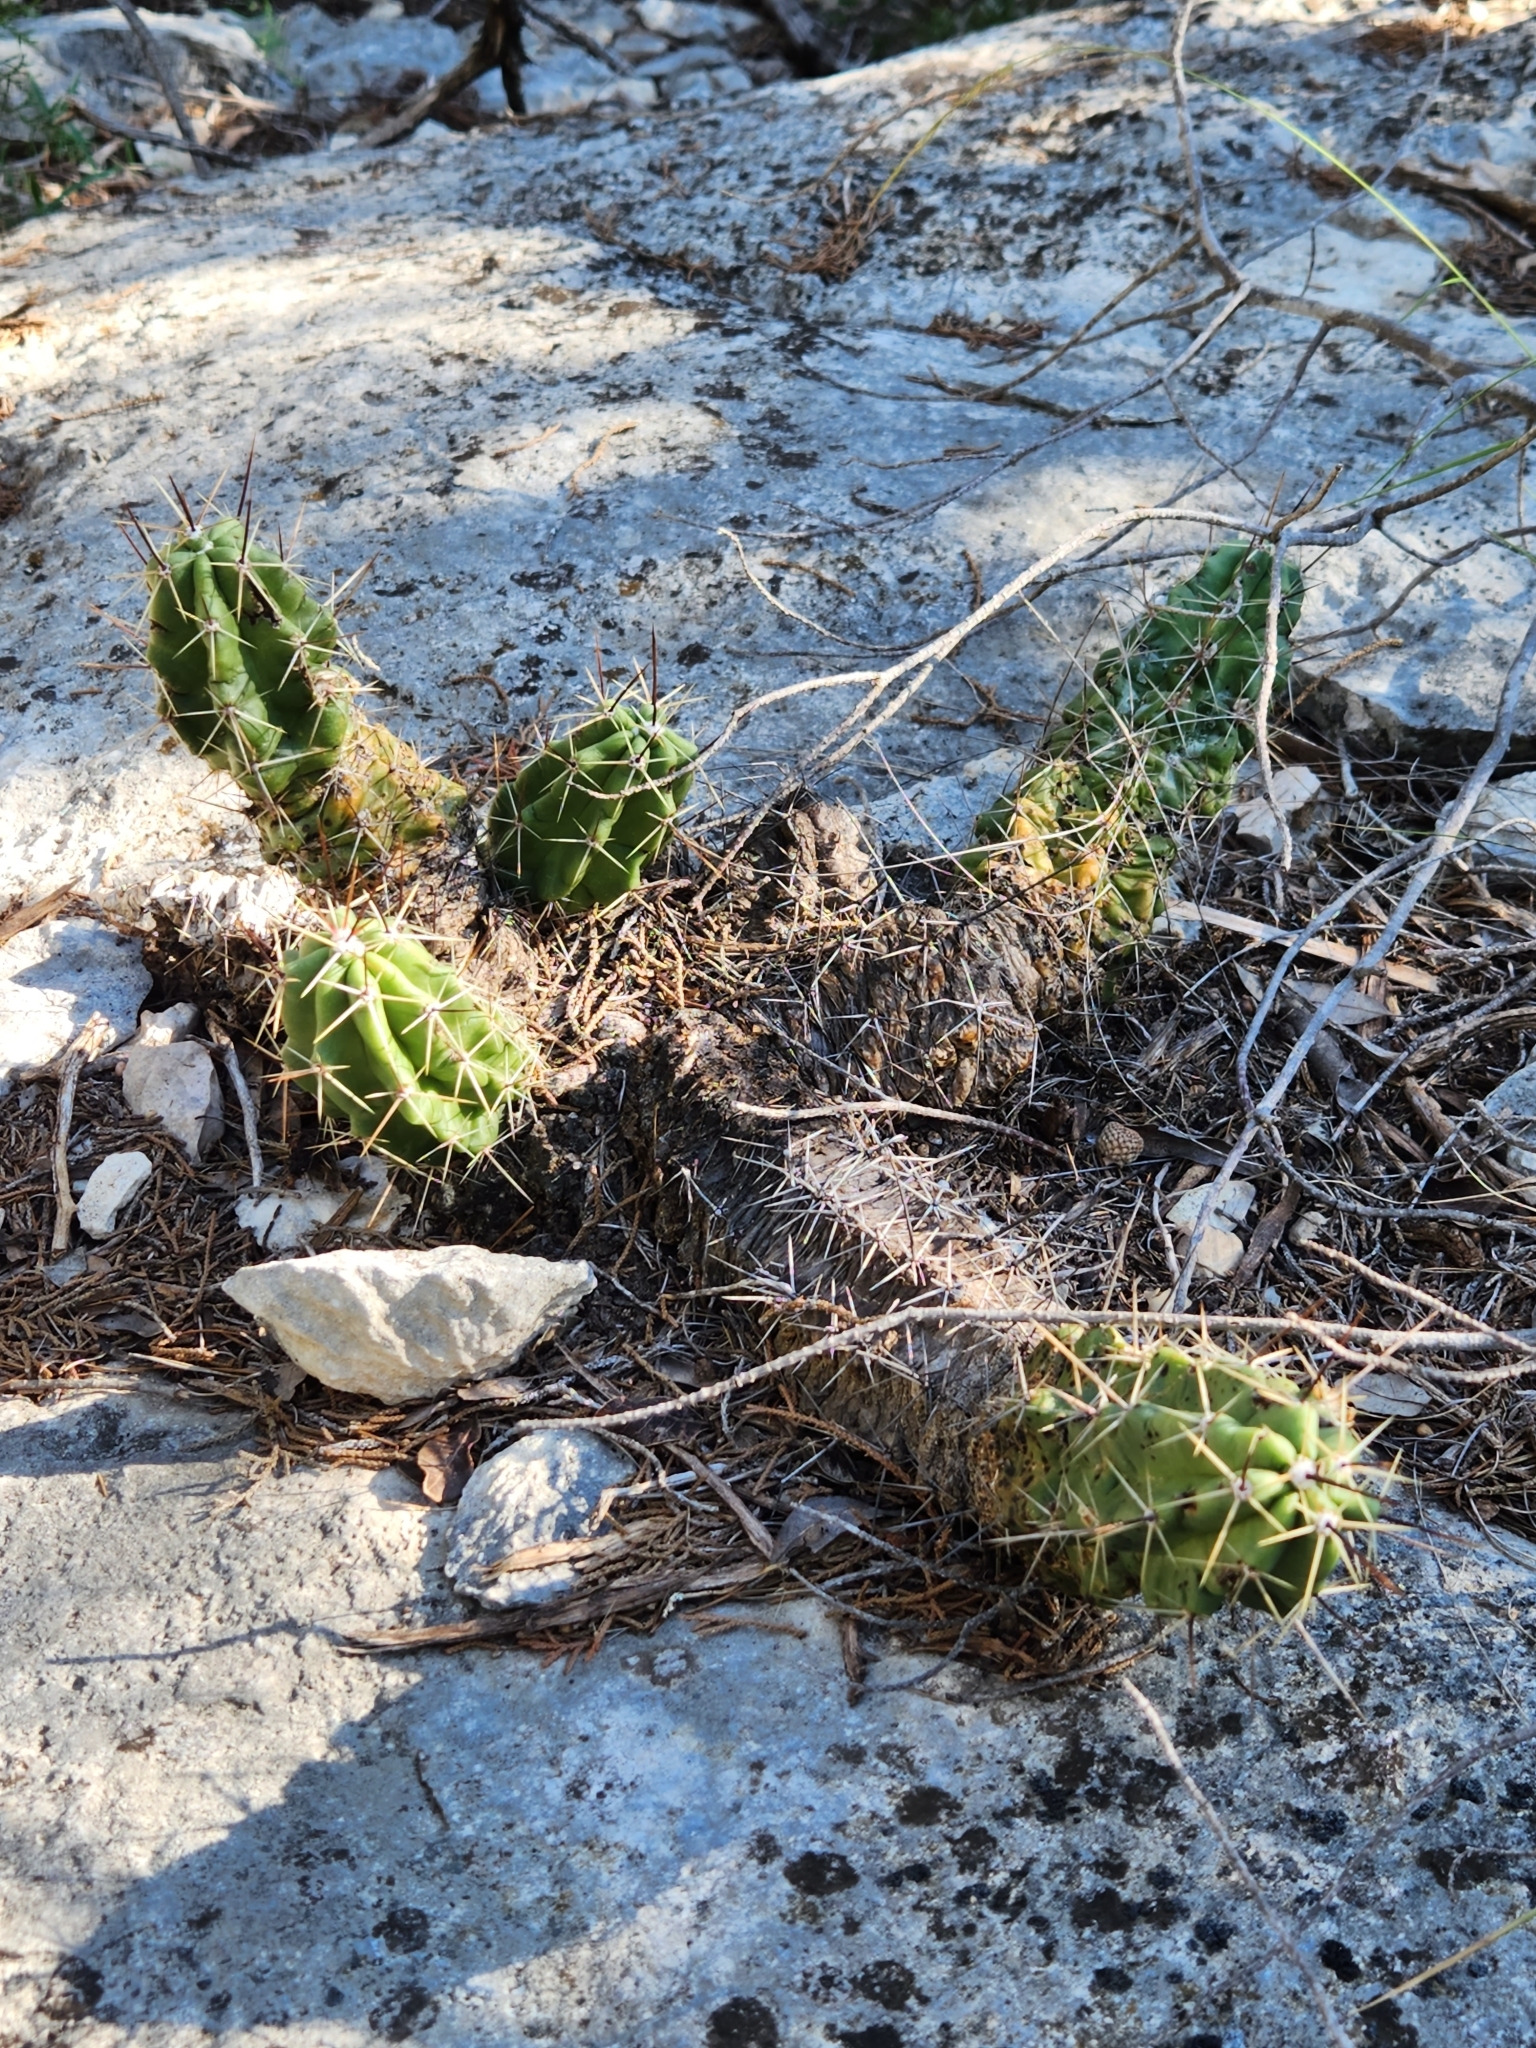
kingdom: Plantae
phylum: Tracheophyta
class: Magnoliopsida
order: Caryophyllales
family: Cactaceae
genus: Echinocereus
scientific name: Echinocereus enneacanthus
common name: Pitaya
